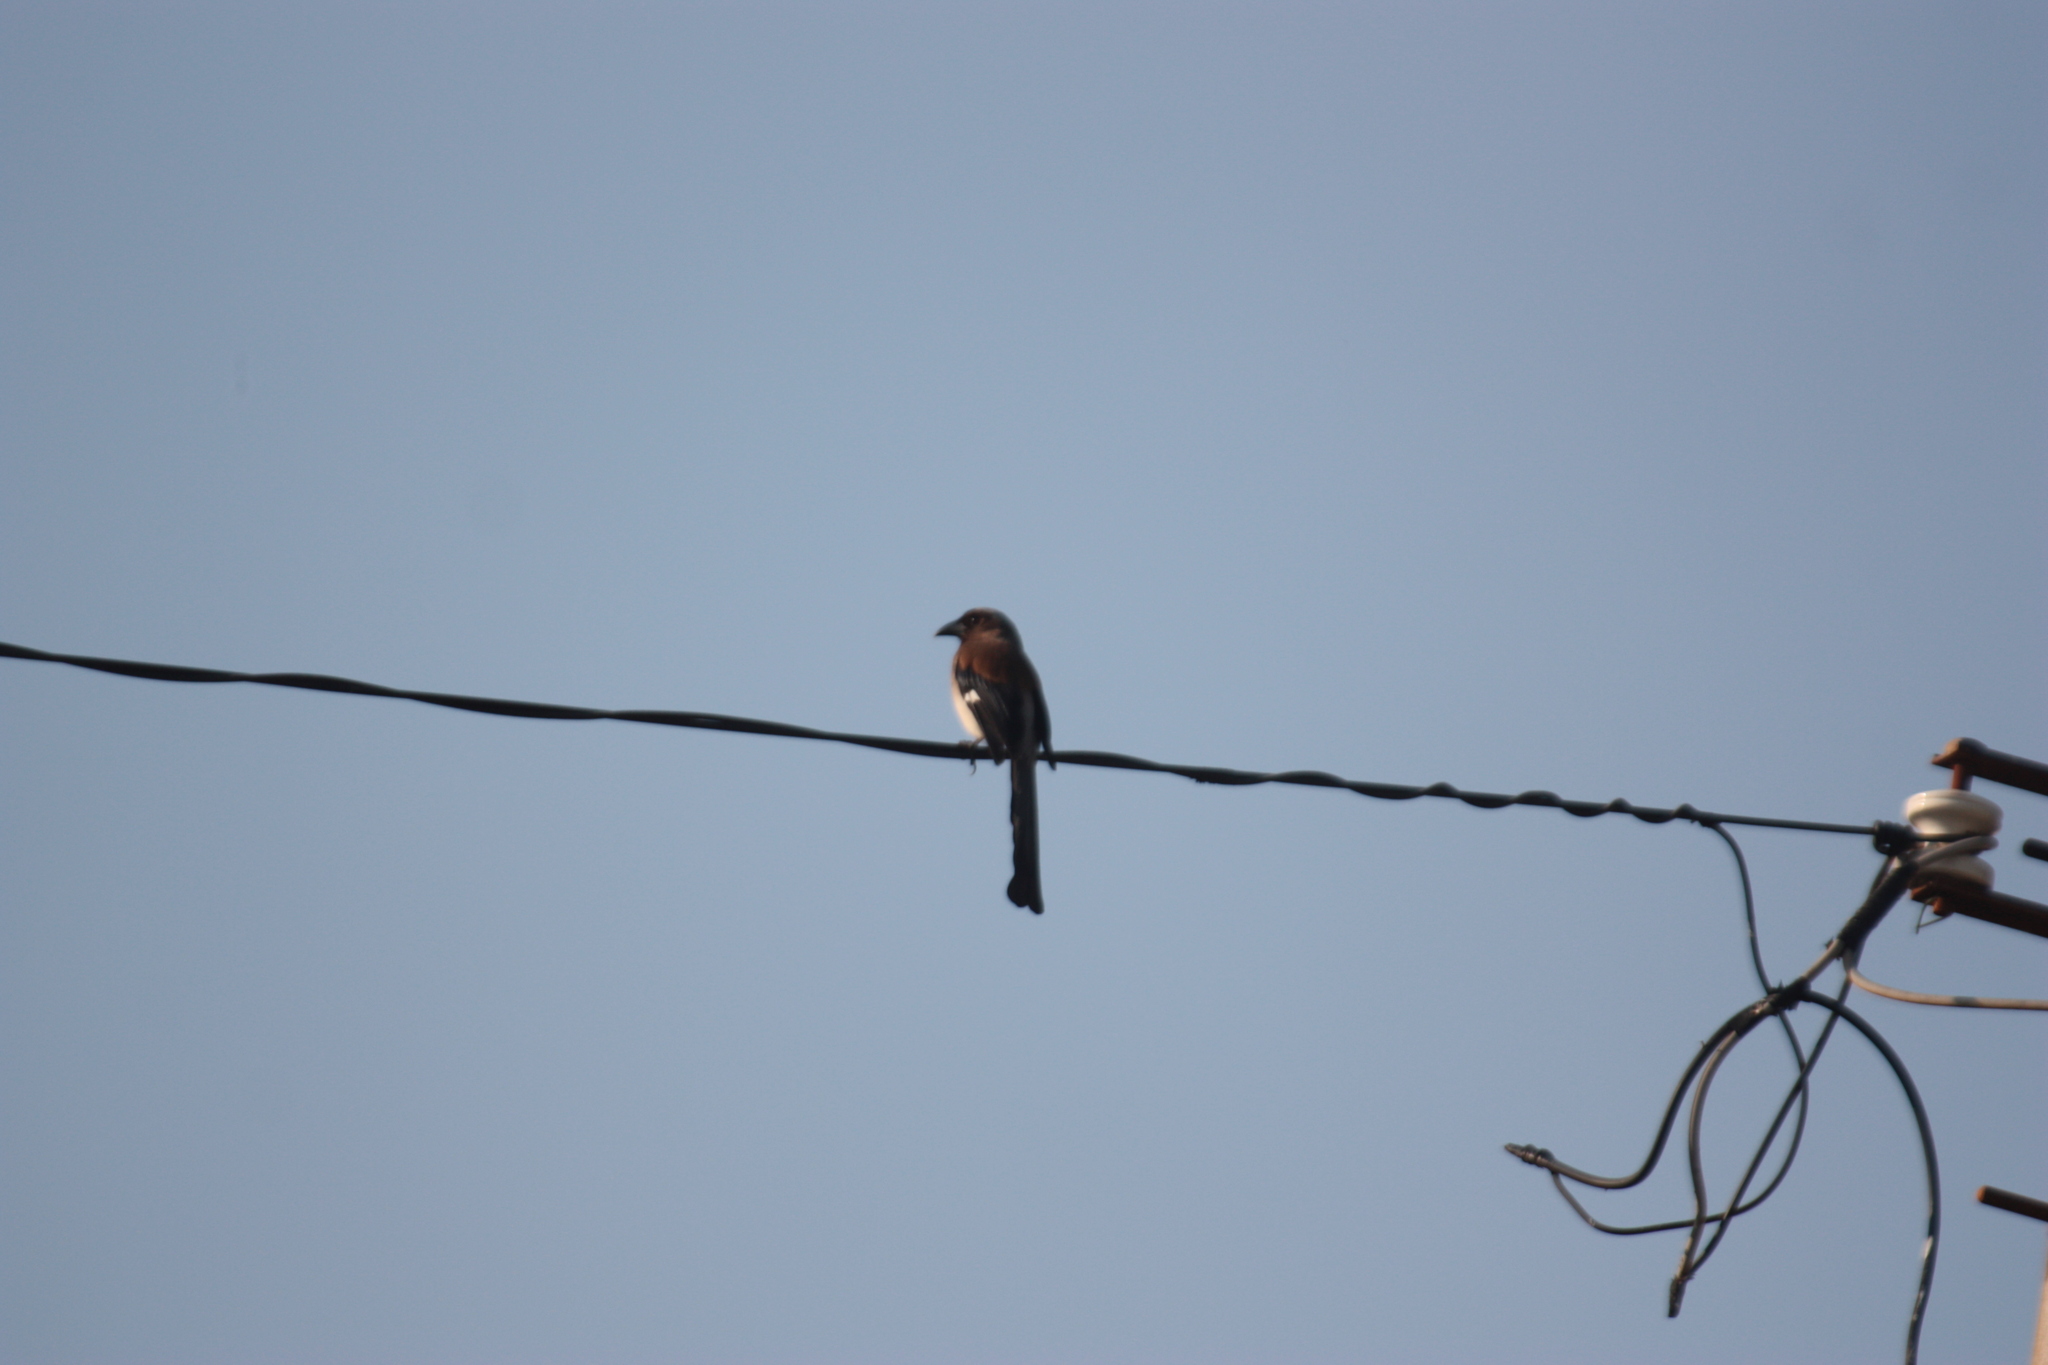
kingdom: Animalia
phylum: Chordata
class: Aves
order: Passeriformes
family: Corvidae
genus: Dendrocitta
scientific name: Dendrocitta formosae
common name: Grey treepie
